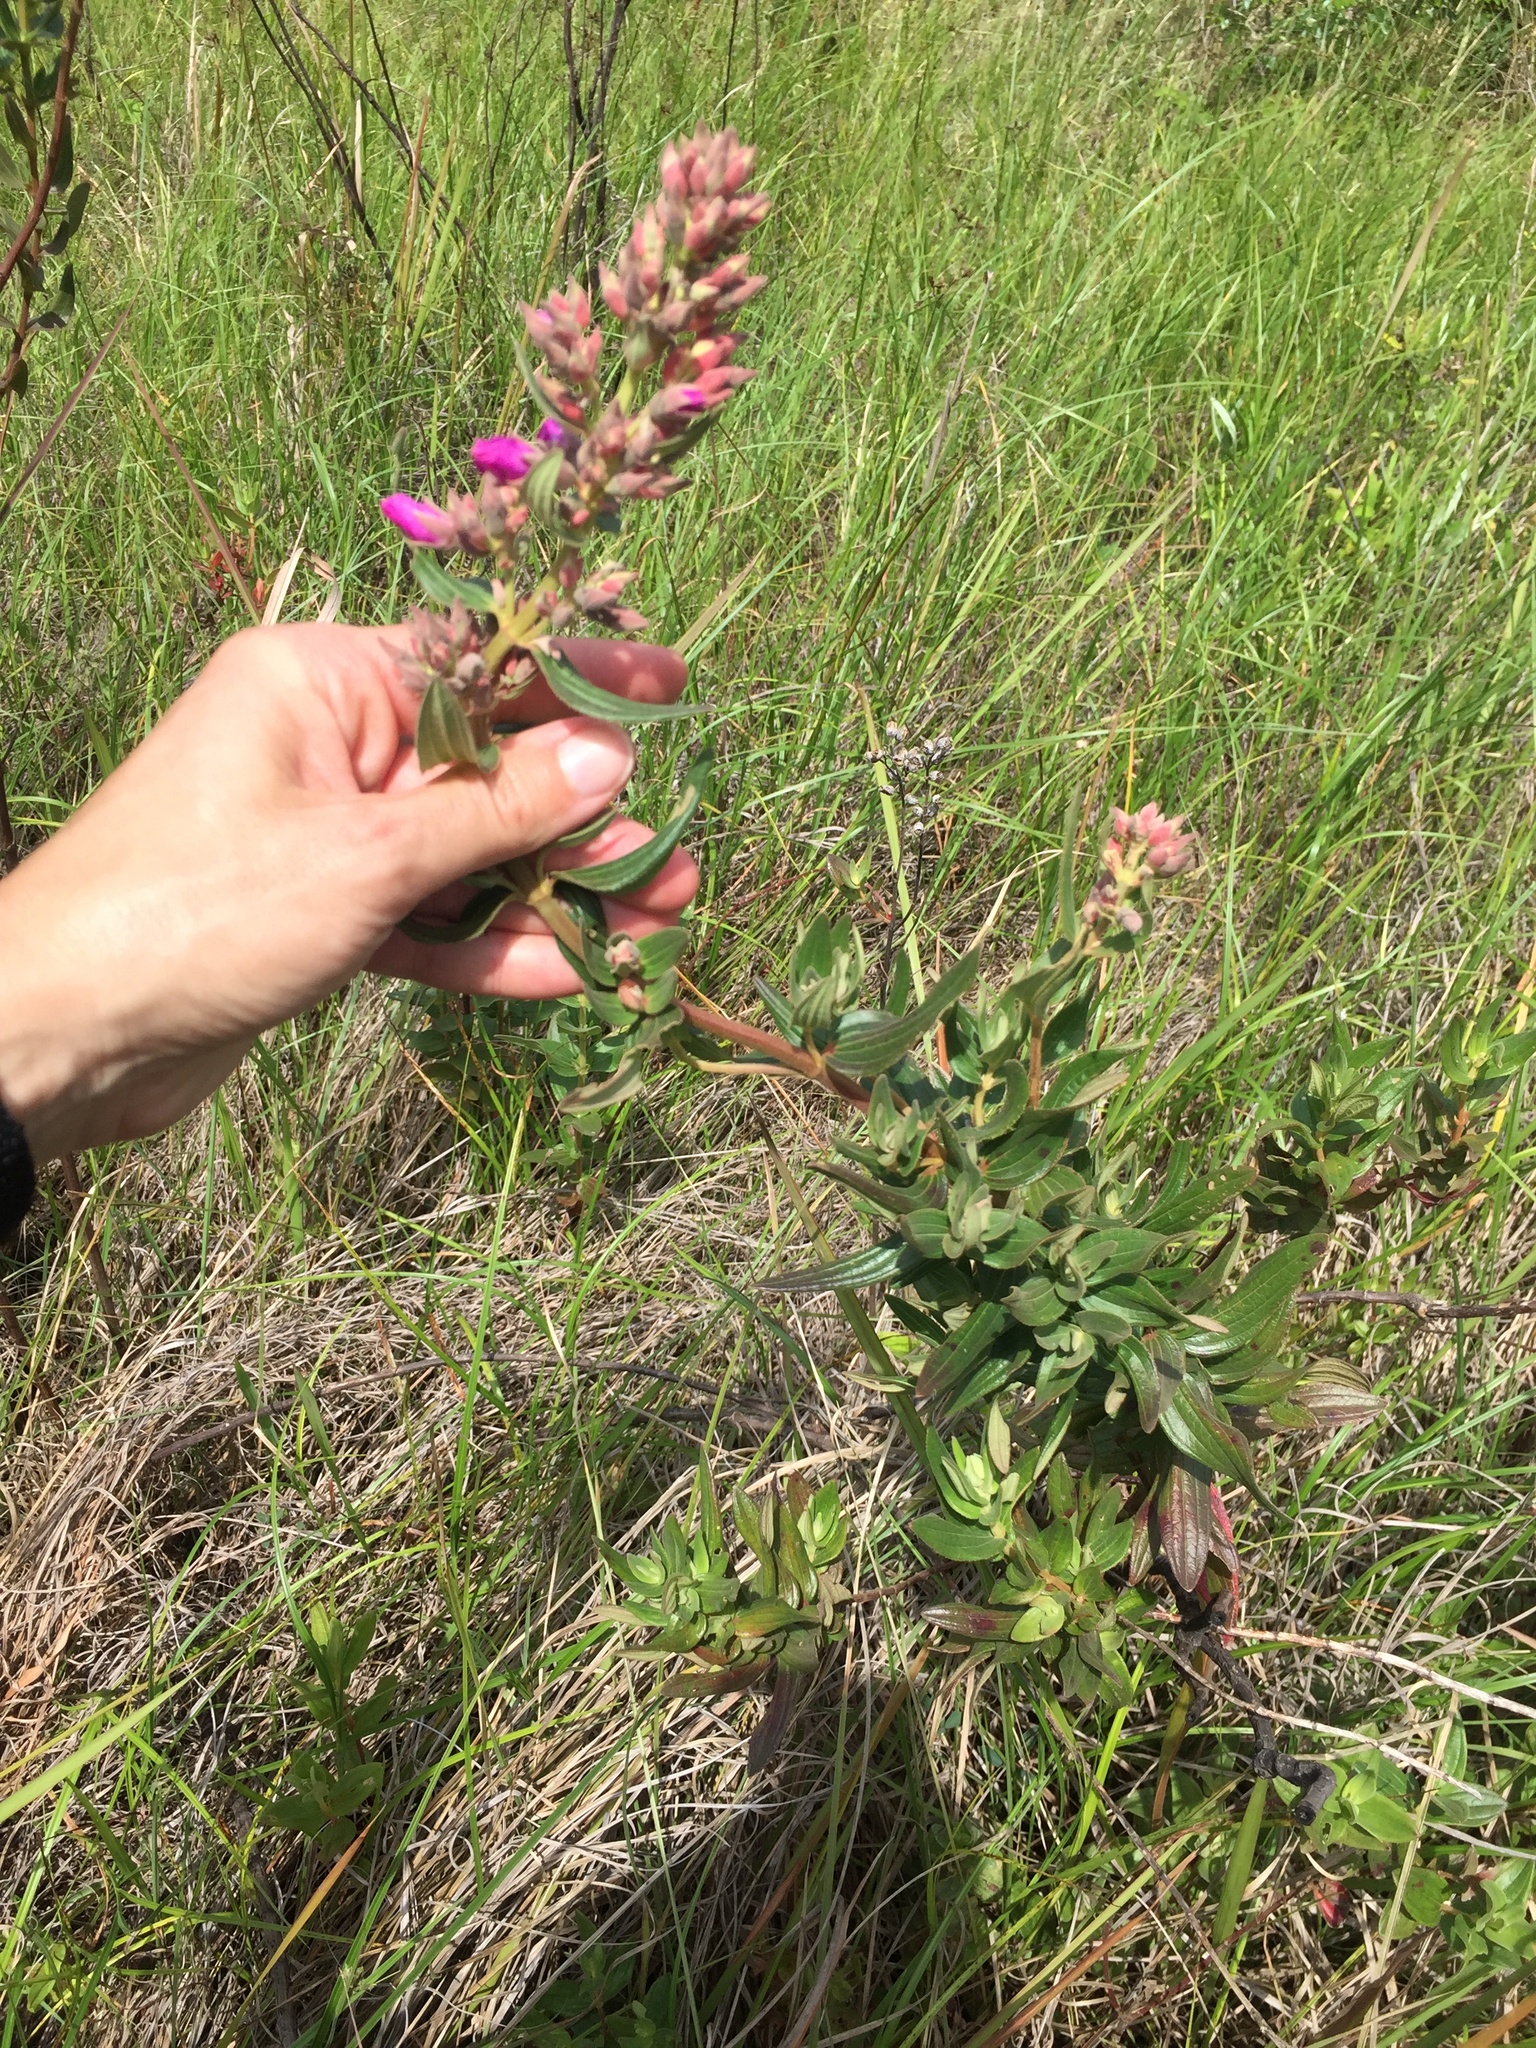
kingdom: Plantae
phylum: Tracheophyta
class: Magnoliopsida
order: Myrtales
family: Melastomataceae
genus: Rosettea
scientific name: Rosettea princeps
